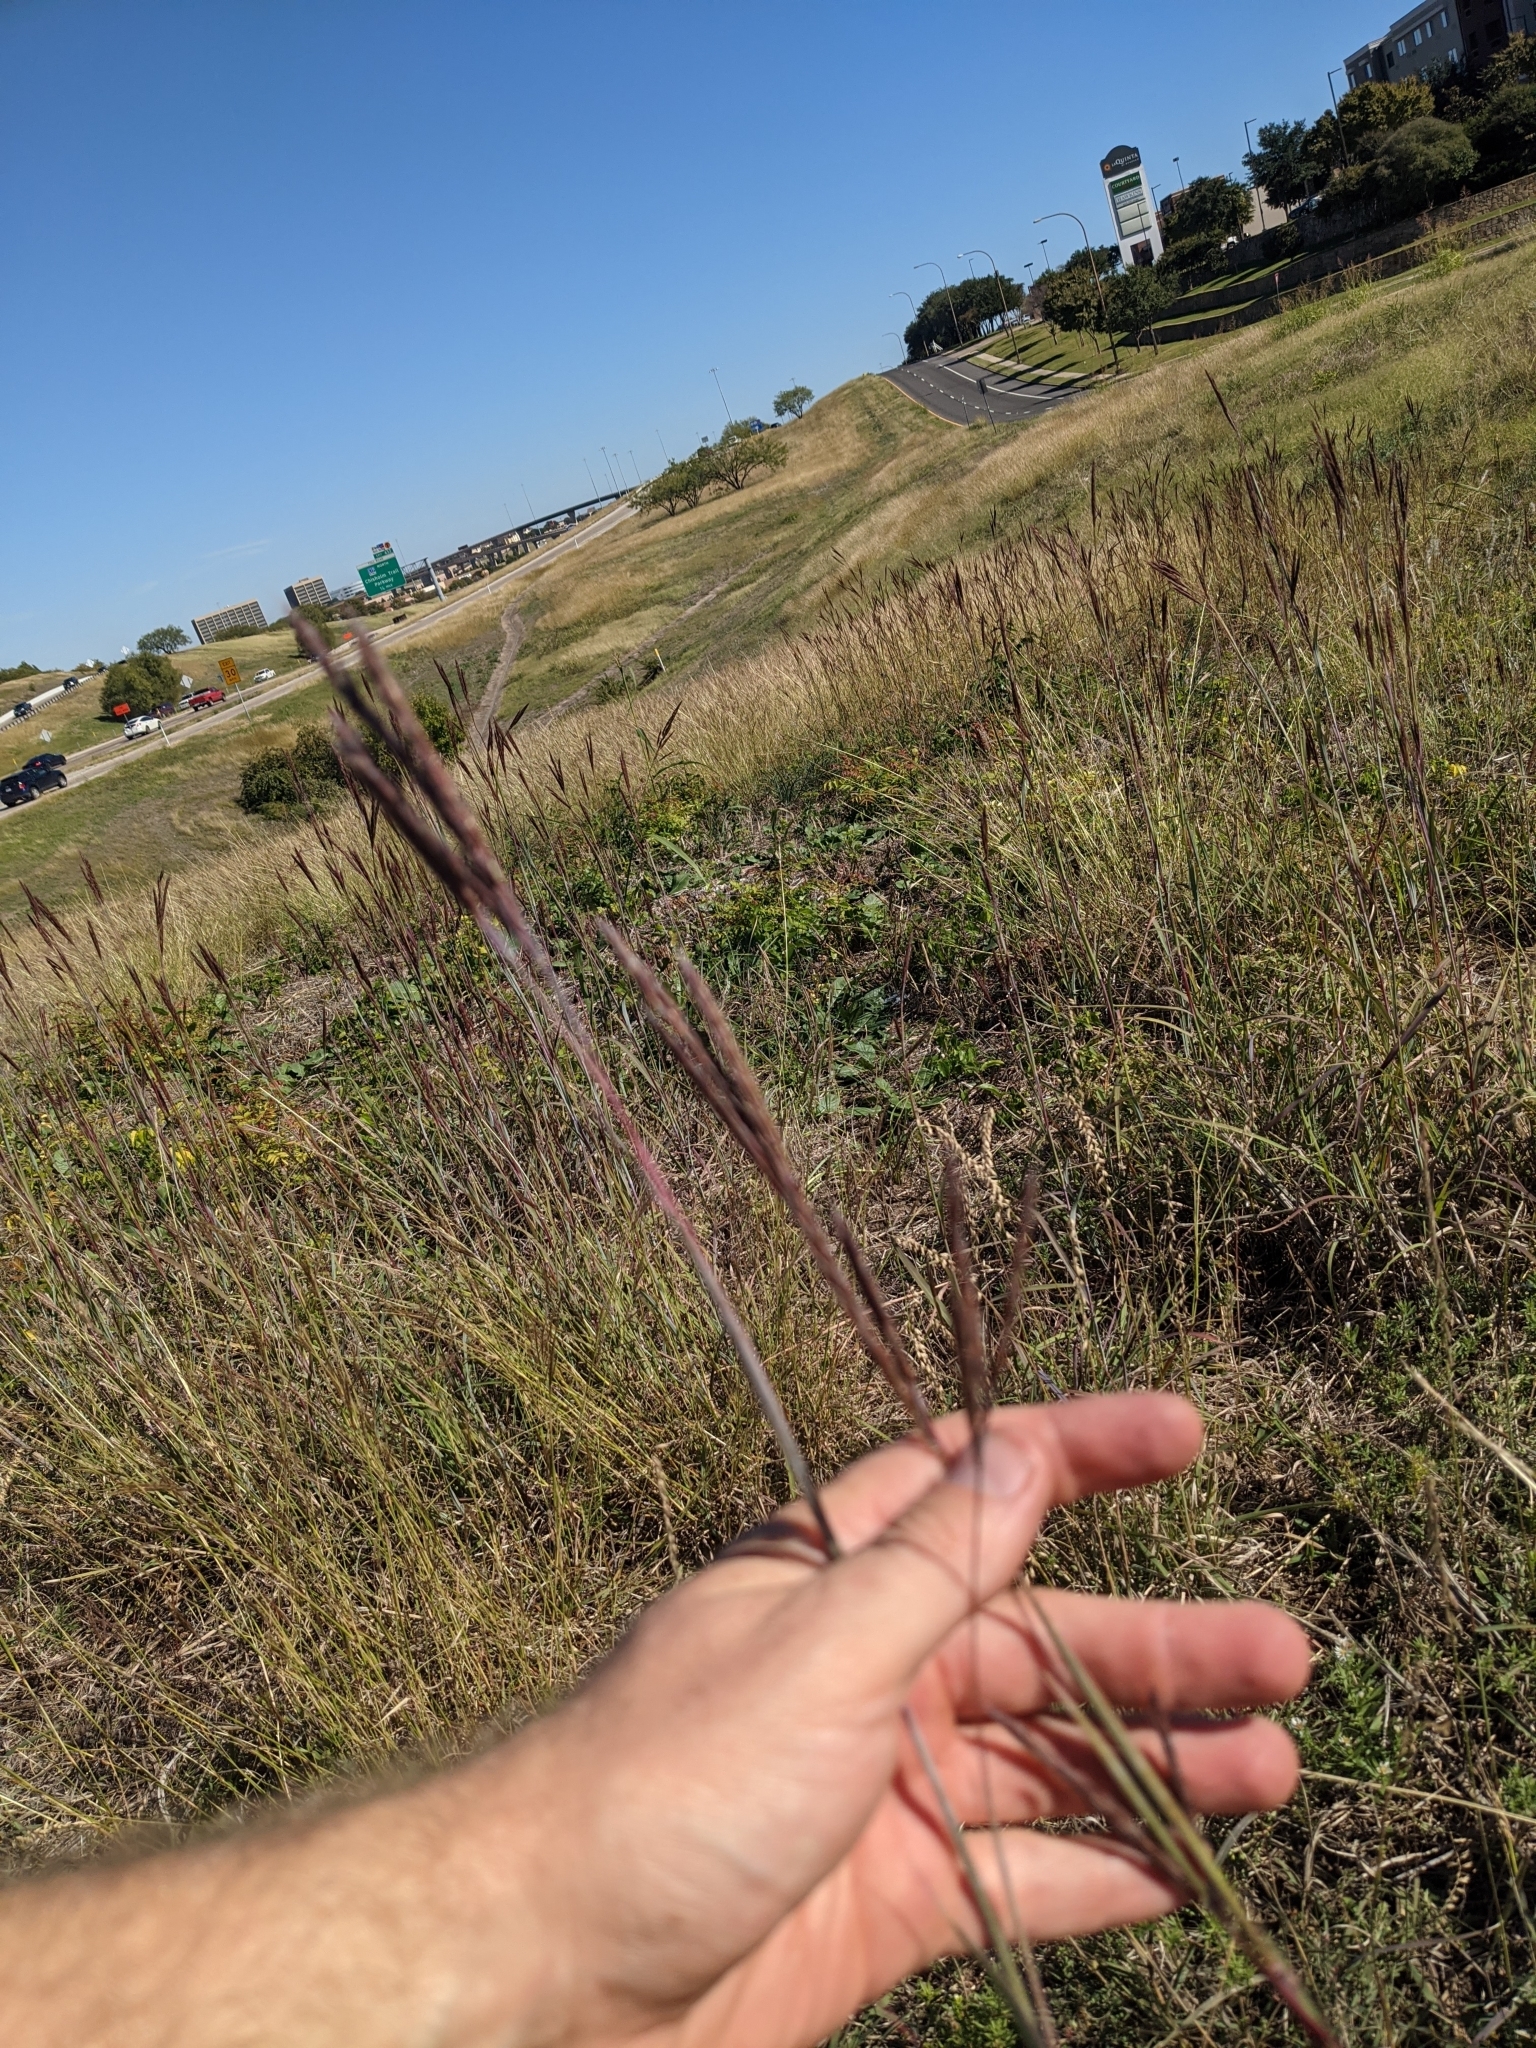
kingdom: Plantae
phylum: Tracheophyta
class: Liliopsida
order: Poales
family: Poaceae
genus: Andropogon
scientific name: Andropogon gerardi
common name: Big bluestem
